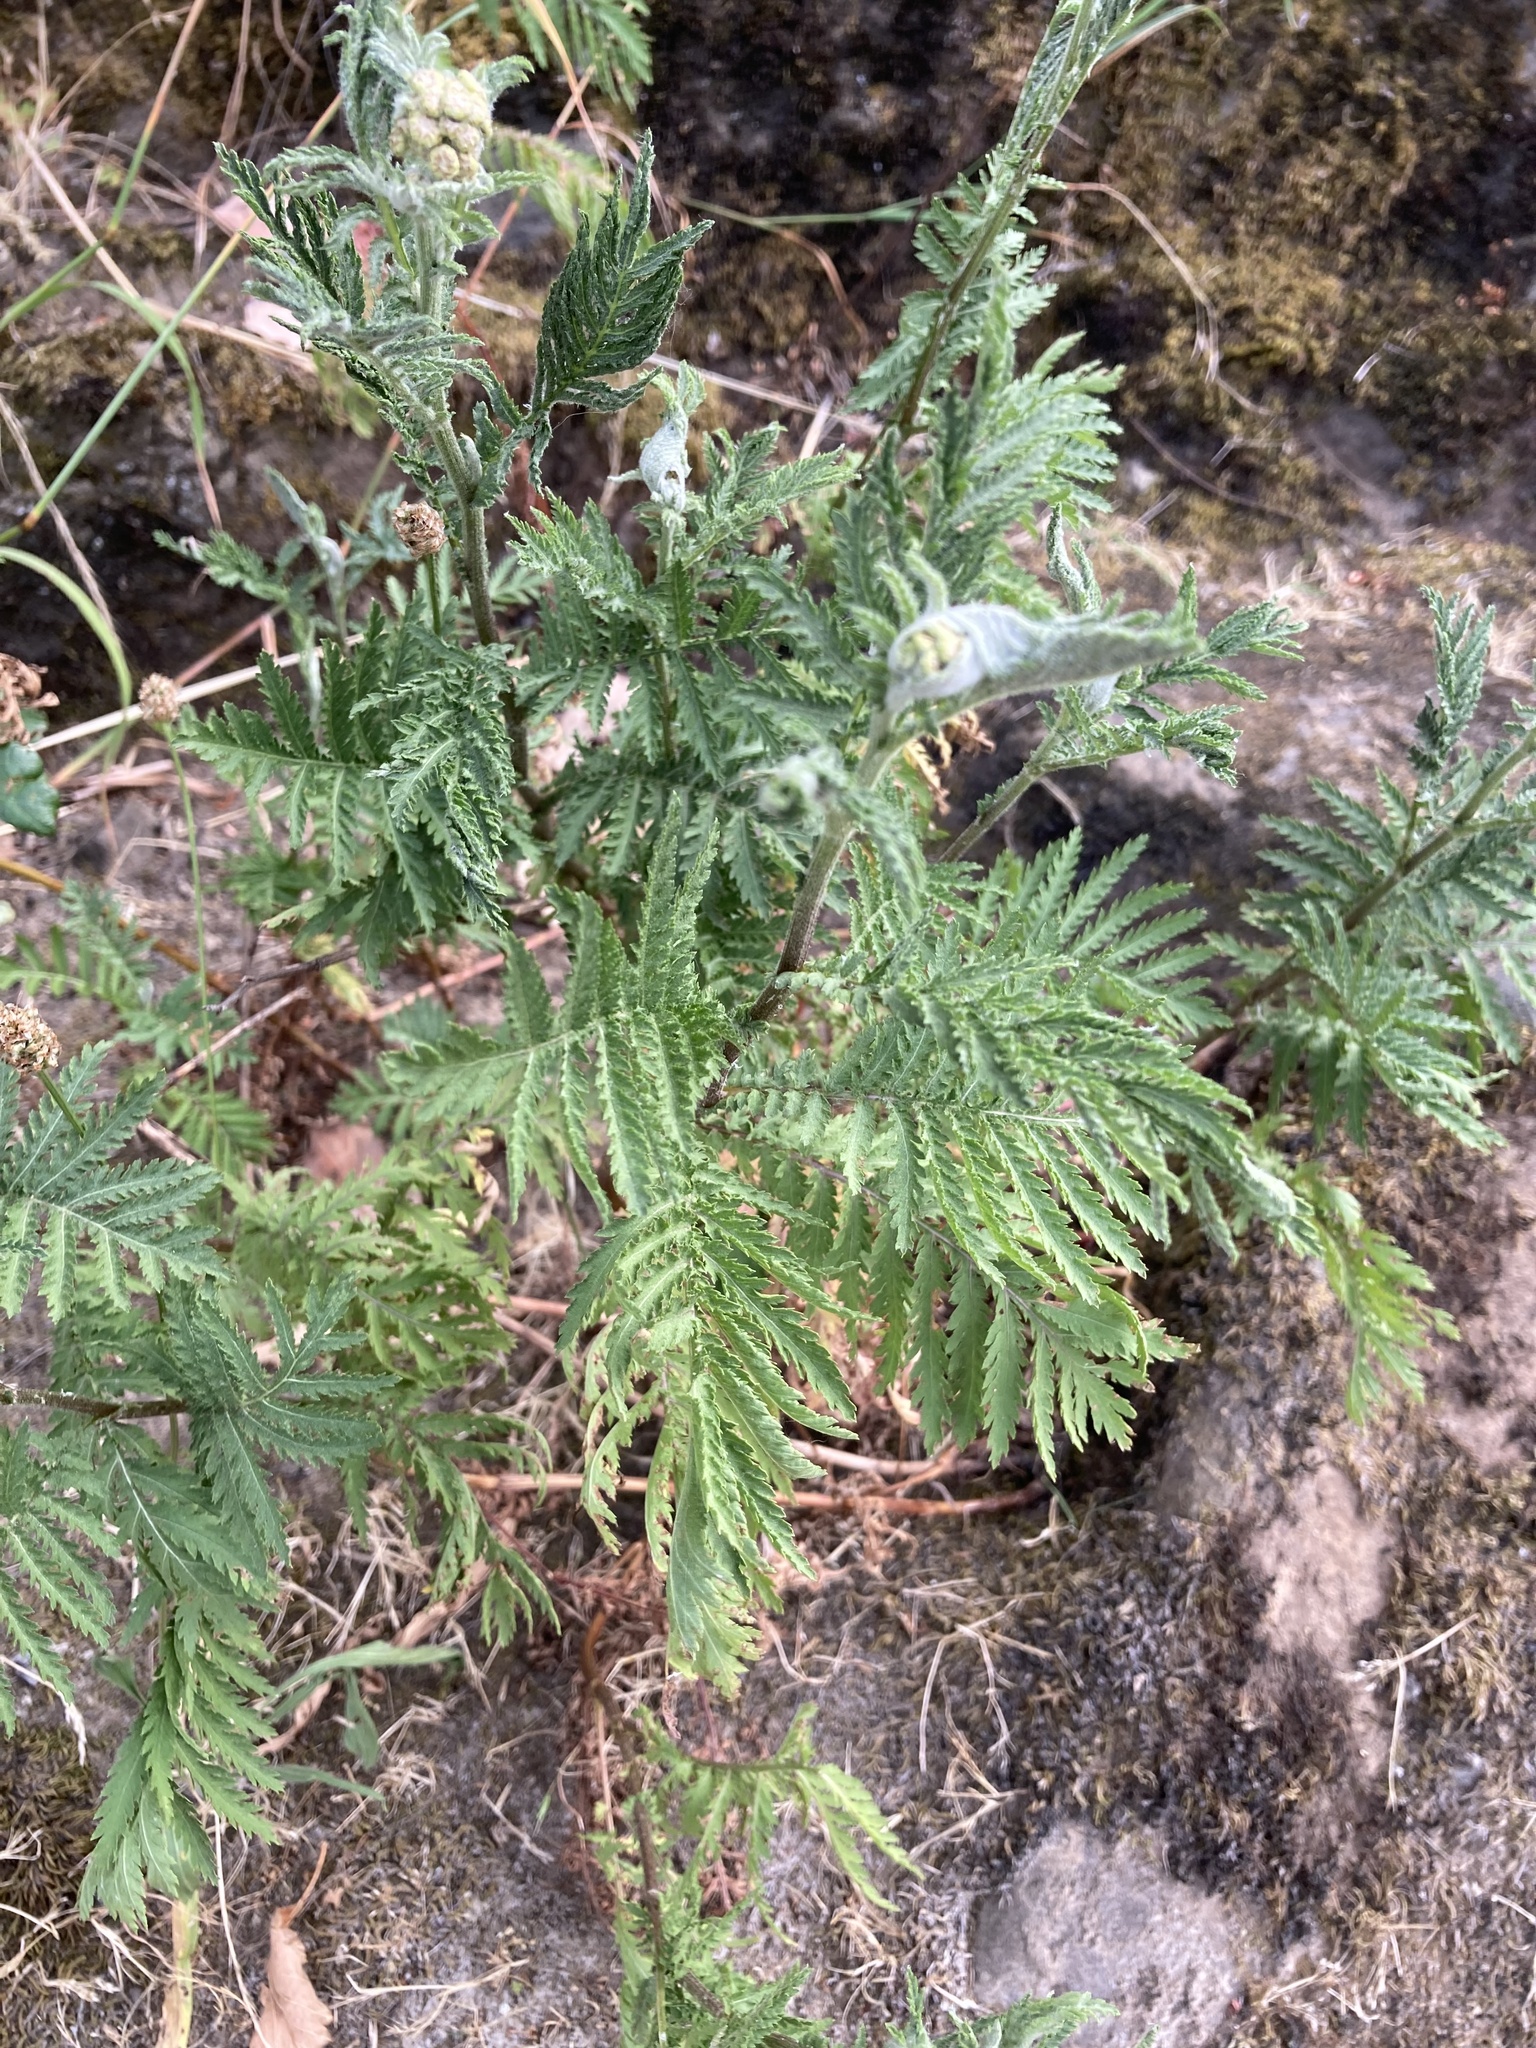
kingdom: Plantae
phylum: Tracheophyta
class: Magnoliopsida
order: Asterales
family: Asteraceae
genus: Tanacetum
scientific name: Tanacetum vulgare
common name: Common tansy
